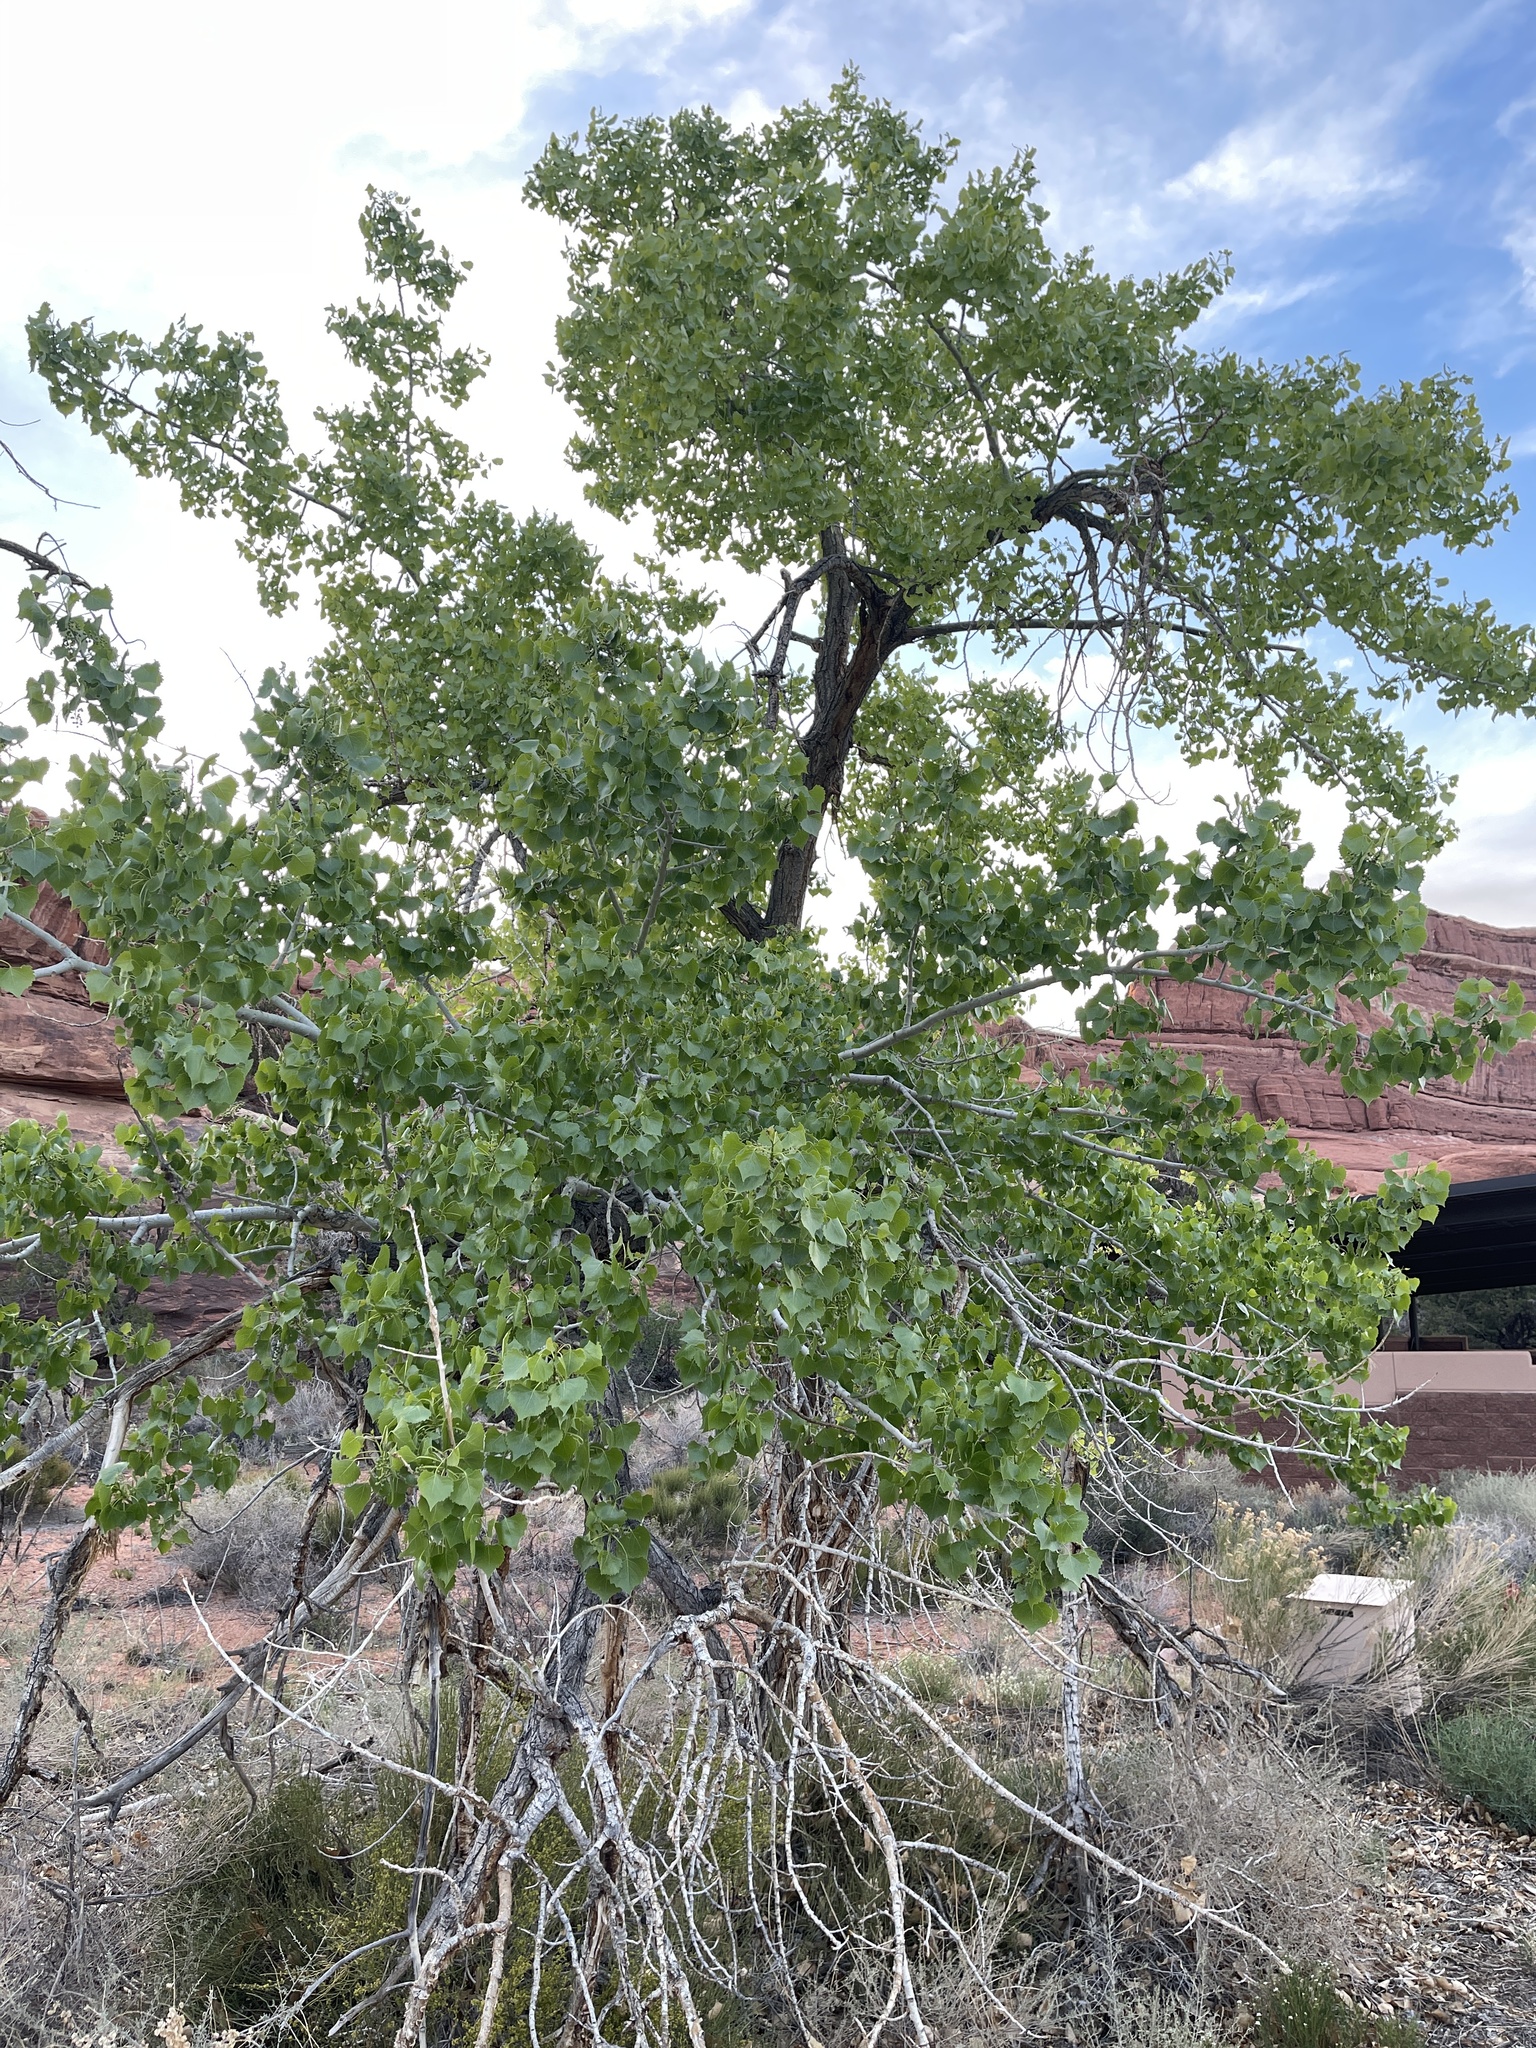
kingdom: Plantae
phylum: Tracheophyta
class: Magnoliopsida
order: Malpighiales
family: Salicaceae
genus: Populus
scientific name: Populus fremontii
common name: Fremont's cottonwood
